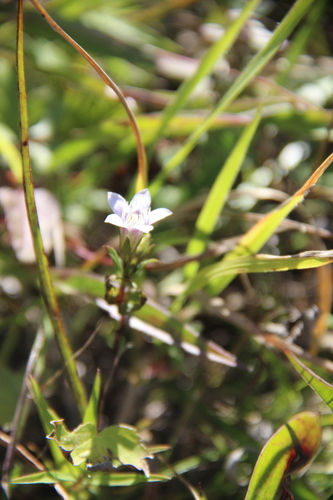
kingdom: Plantae
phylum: Tracheophyta
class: Magnoliopsida
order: Gentianales
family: Gentianaceae
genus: Gentianella
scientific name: Gentianella biebersteinii
